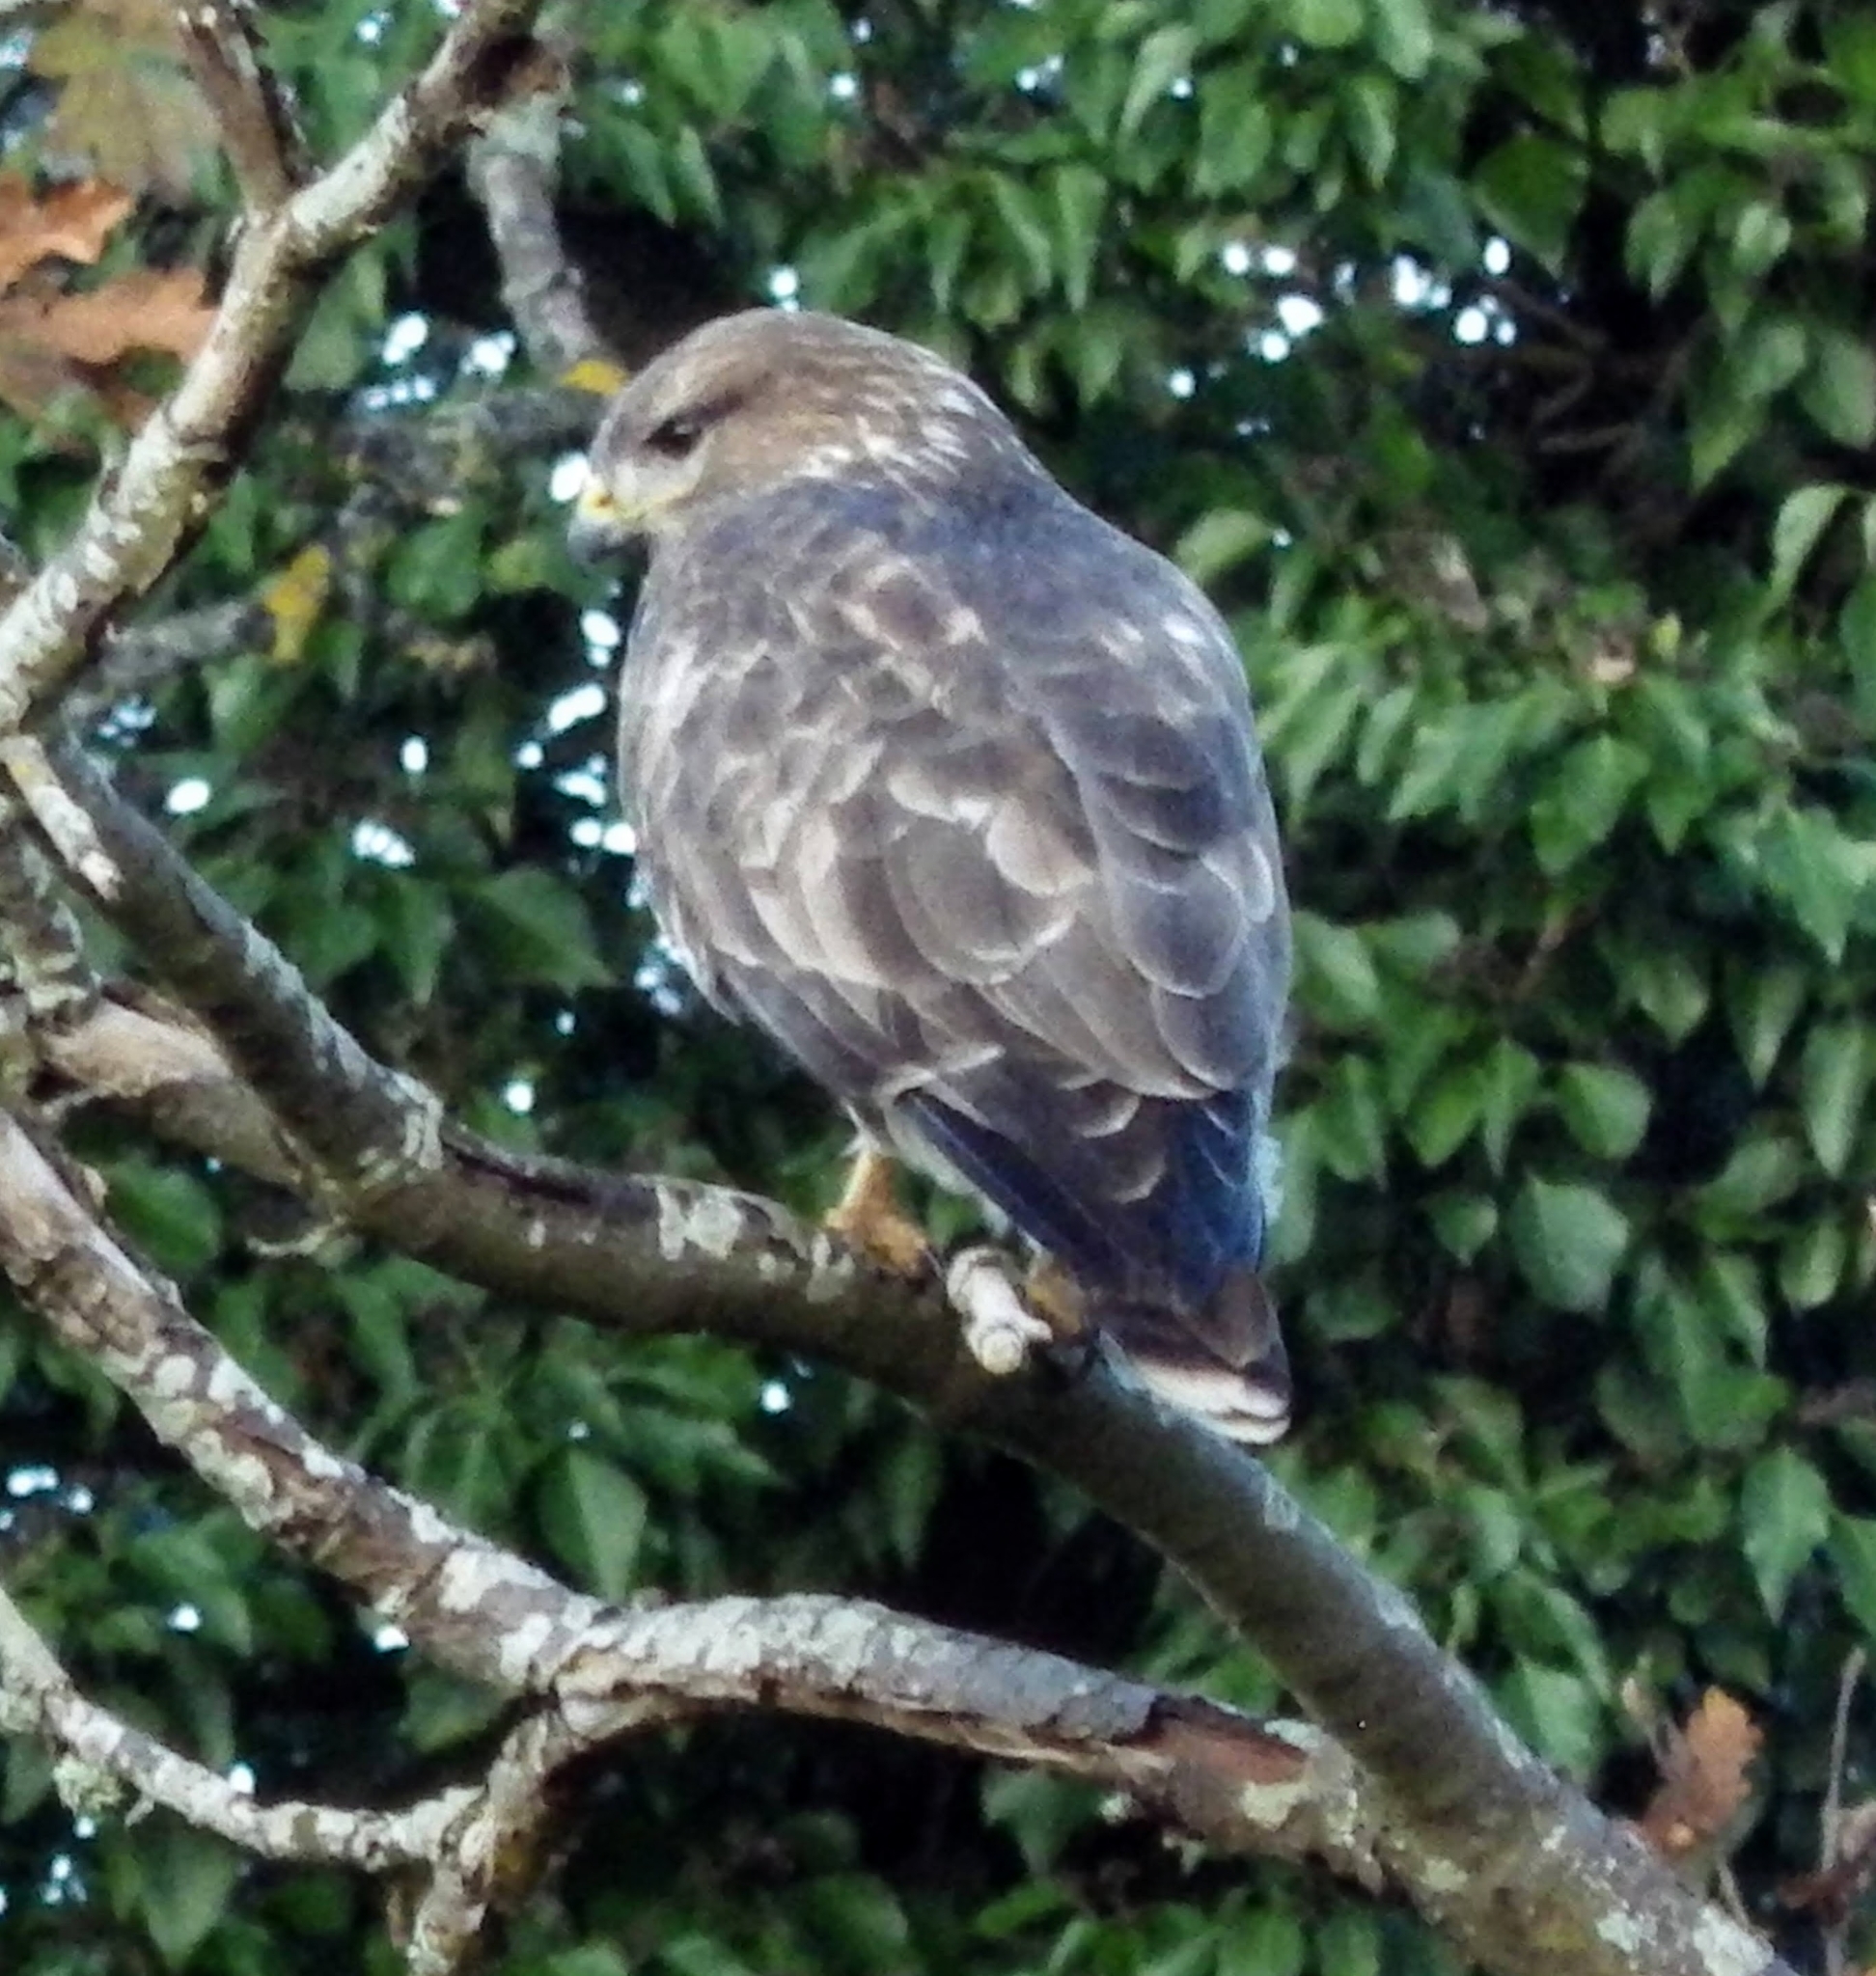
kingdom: Animalia
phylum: Chordata
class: Aves
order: Accipitriformes
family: Accipitridae
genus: Buteo
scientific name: Buteo buteo
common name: Common buzzard
